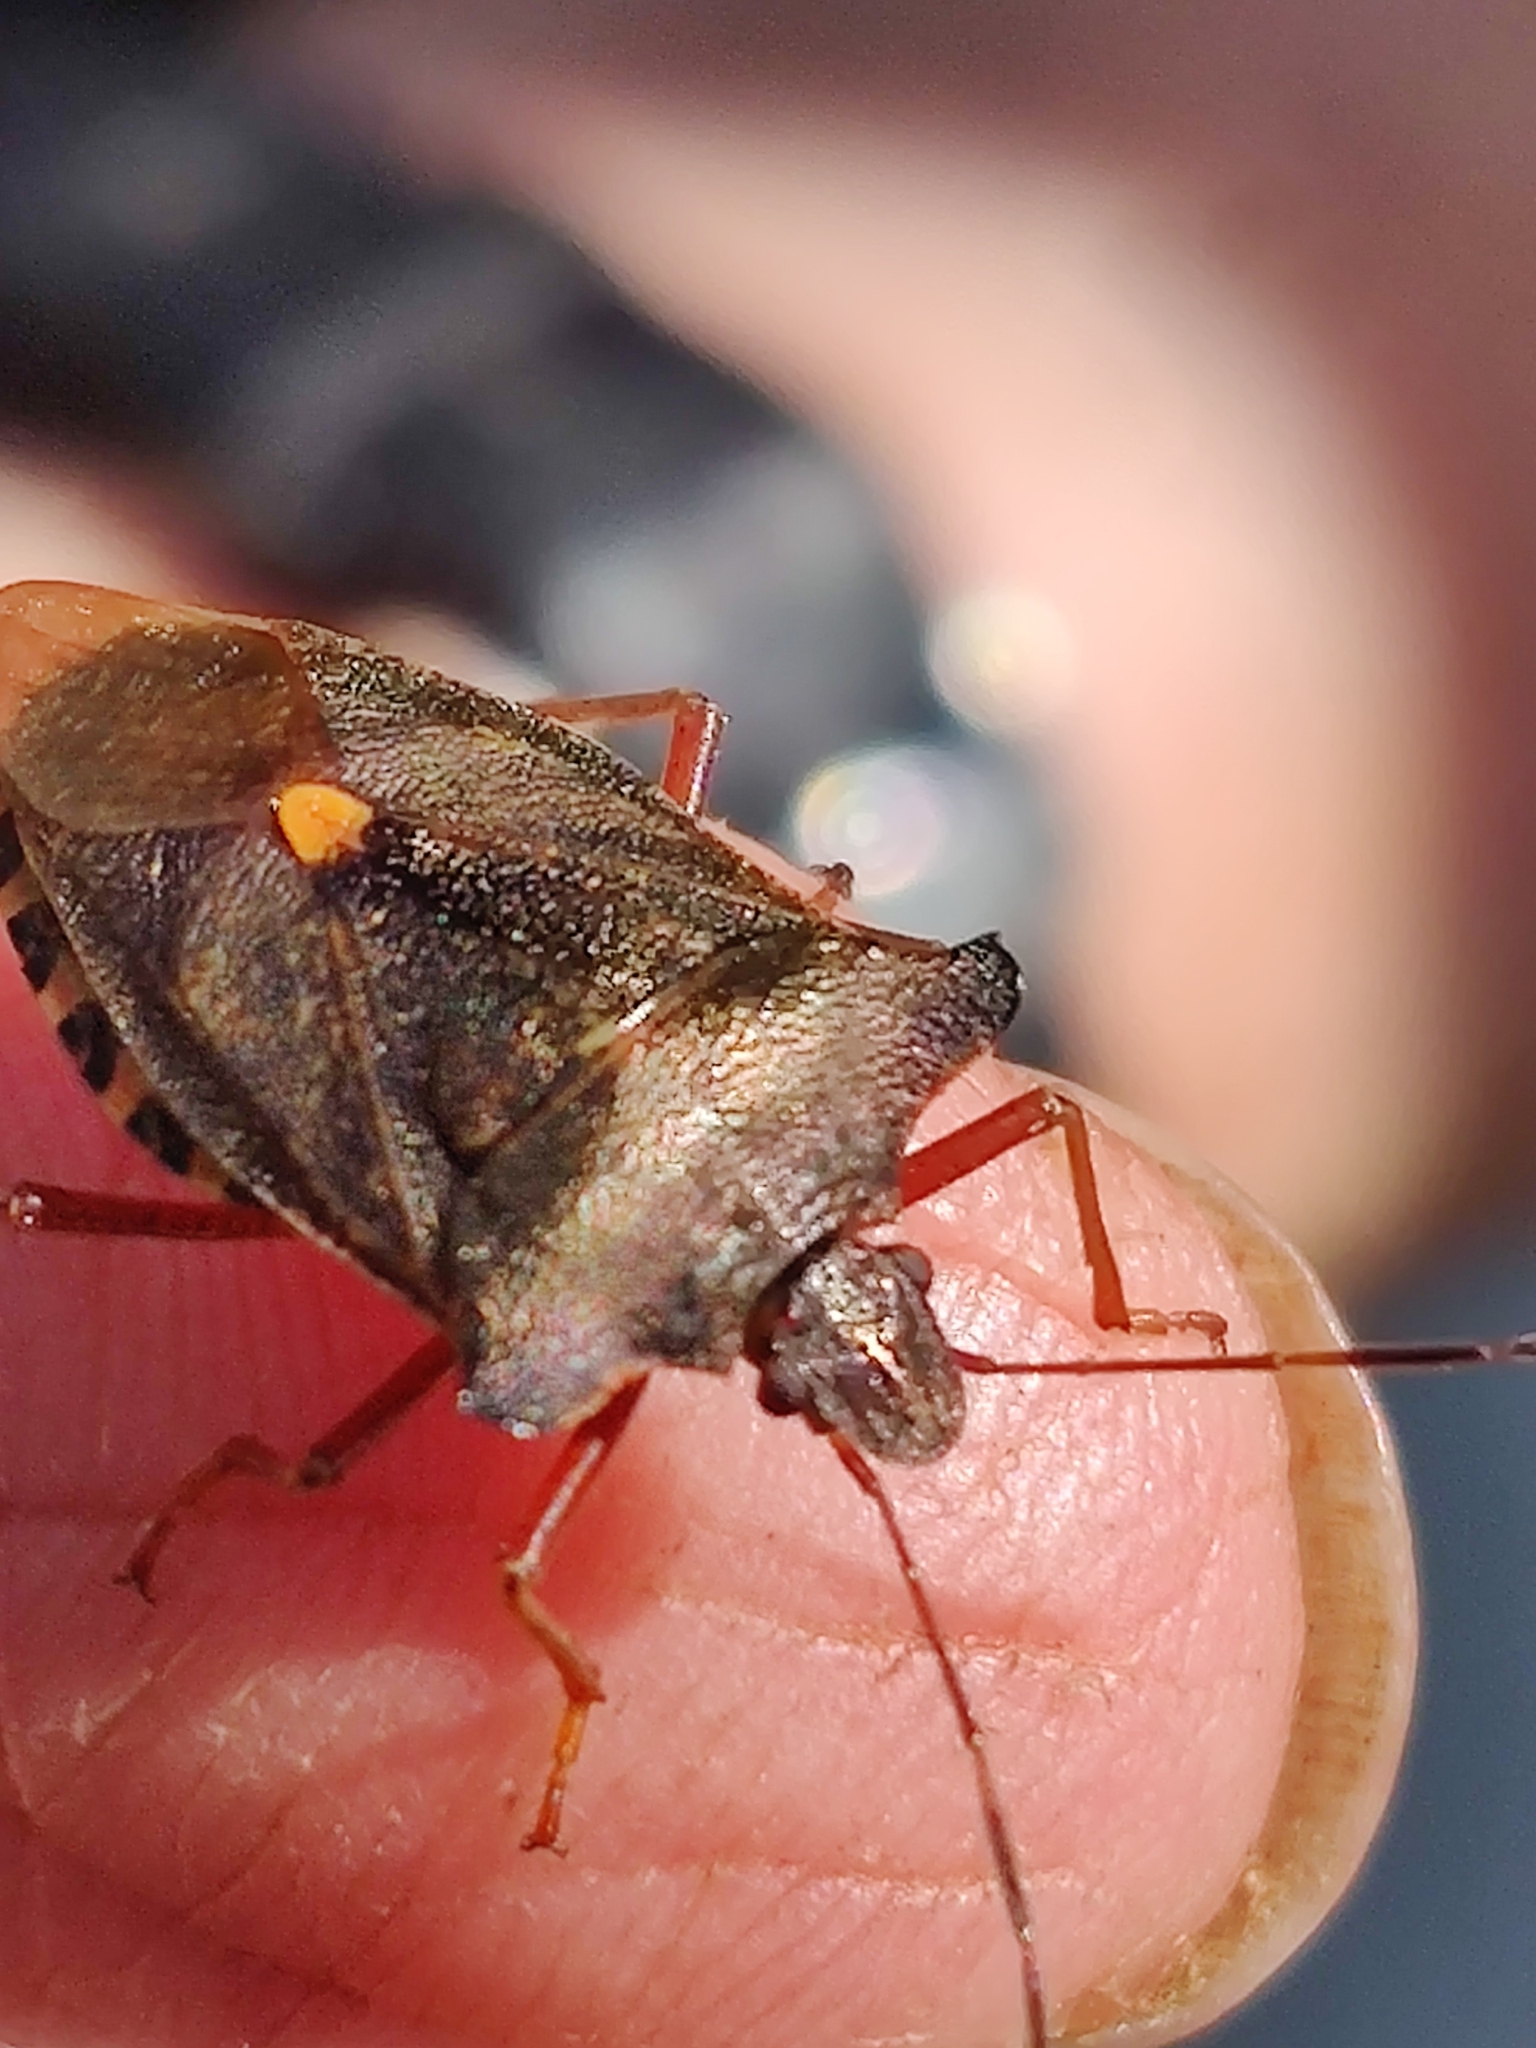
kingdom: Animalia
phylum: Arthropoda
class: Insecta
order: Hemiptera
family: Pentatomidae
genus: Pentatoma
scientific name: Pentatoma rufipes
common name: Forest bug
